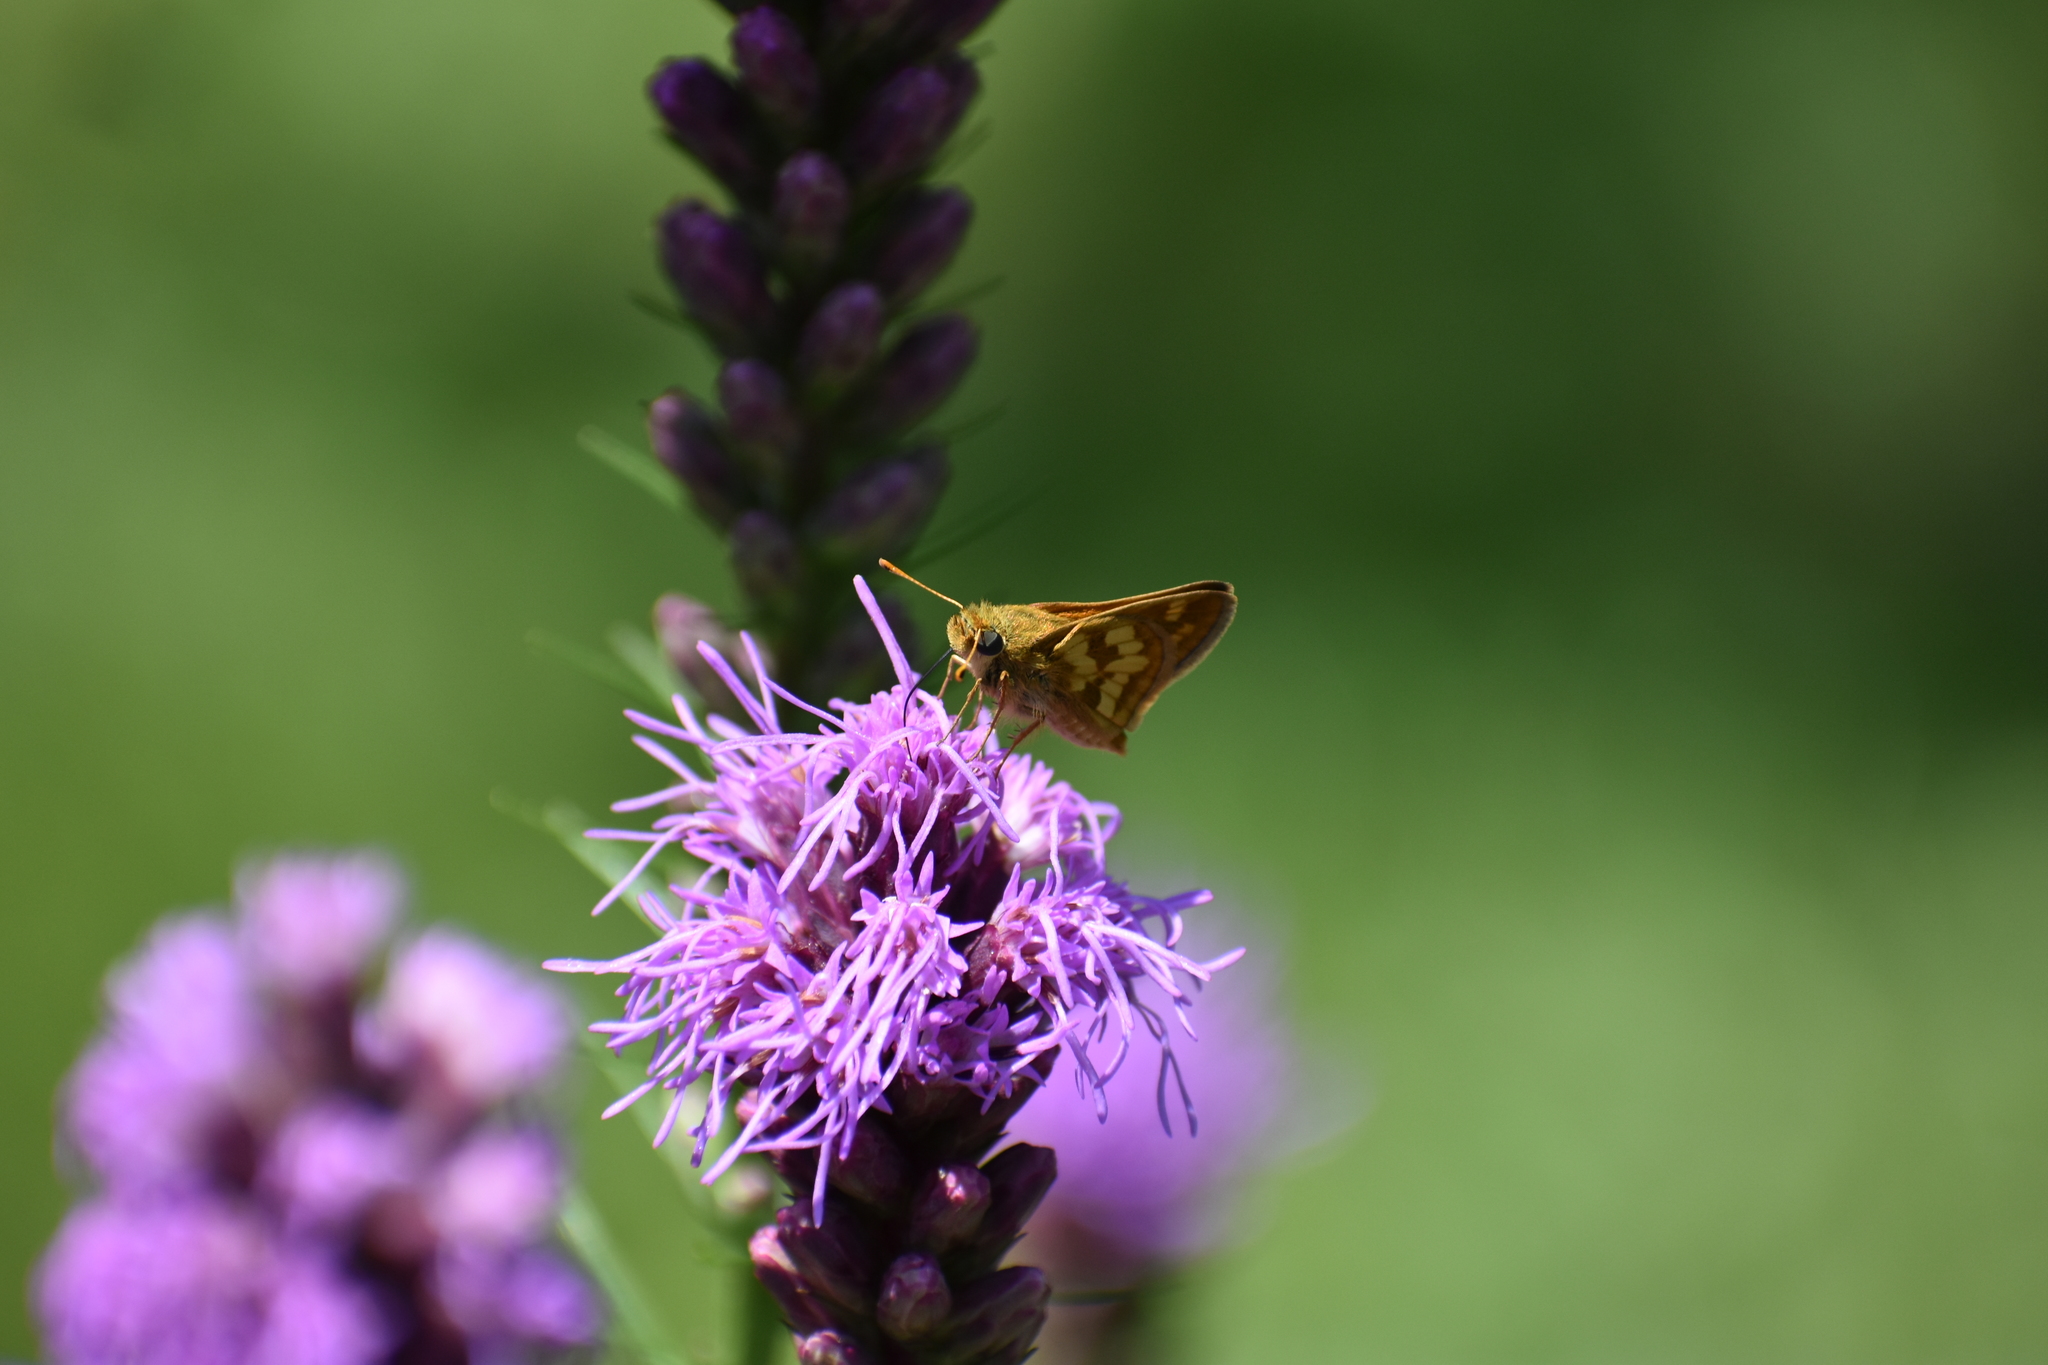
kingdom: Animalia
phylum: Arthropoda
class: Insecta
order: Lepidoptera
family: Hesperiidae
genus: Polites
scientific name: Polites coras
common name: Peck's skipper
